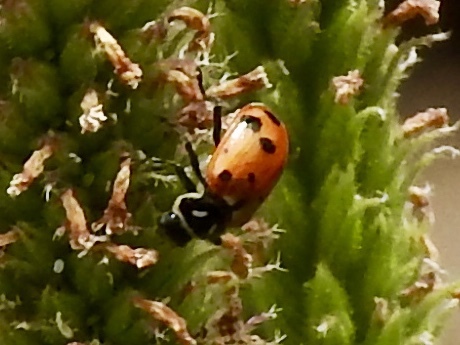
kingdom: Animalia
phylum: Arthropoda
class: Insecta
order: Coleoptera
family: Coccinellidae
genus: Hippodamia
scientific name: Hippodamia convergens
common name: Convergent lady beetle
